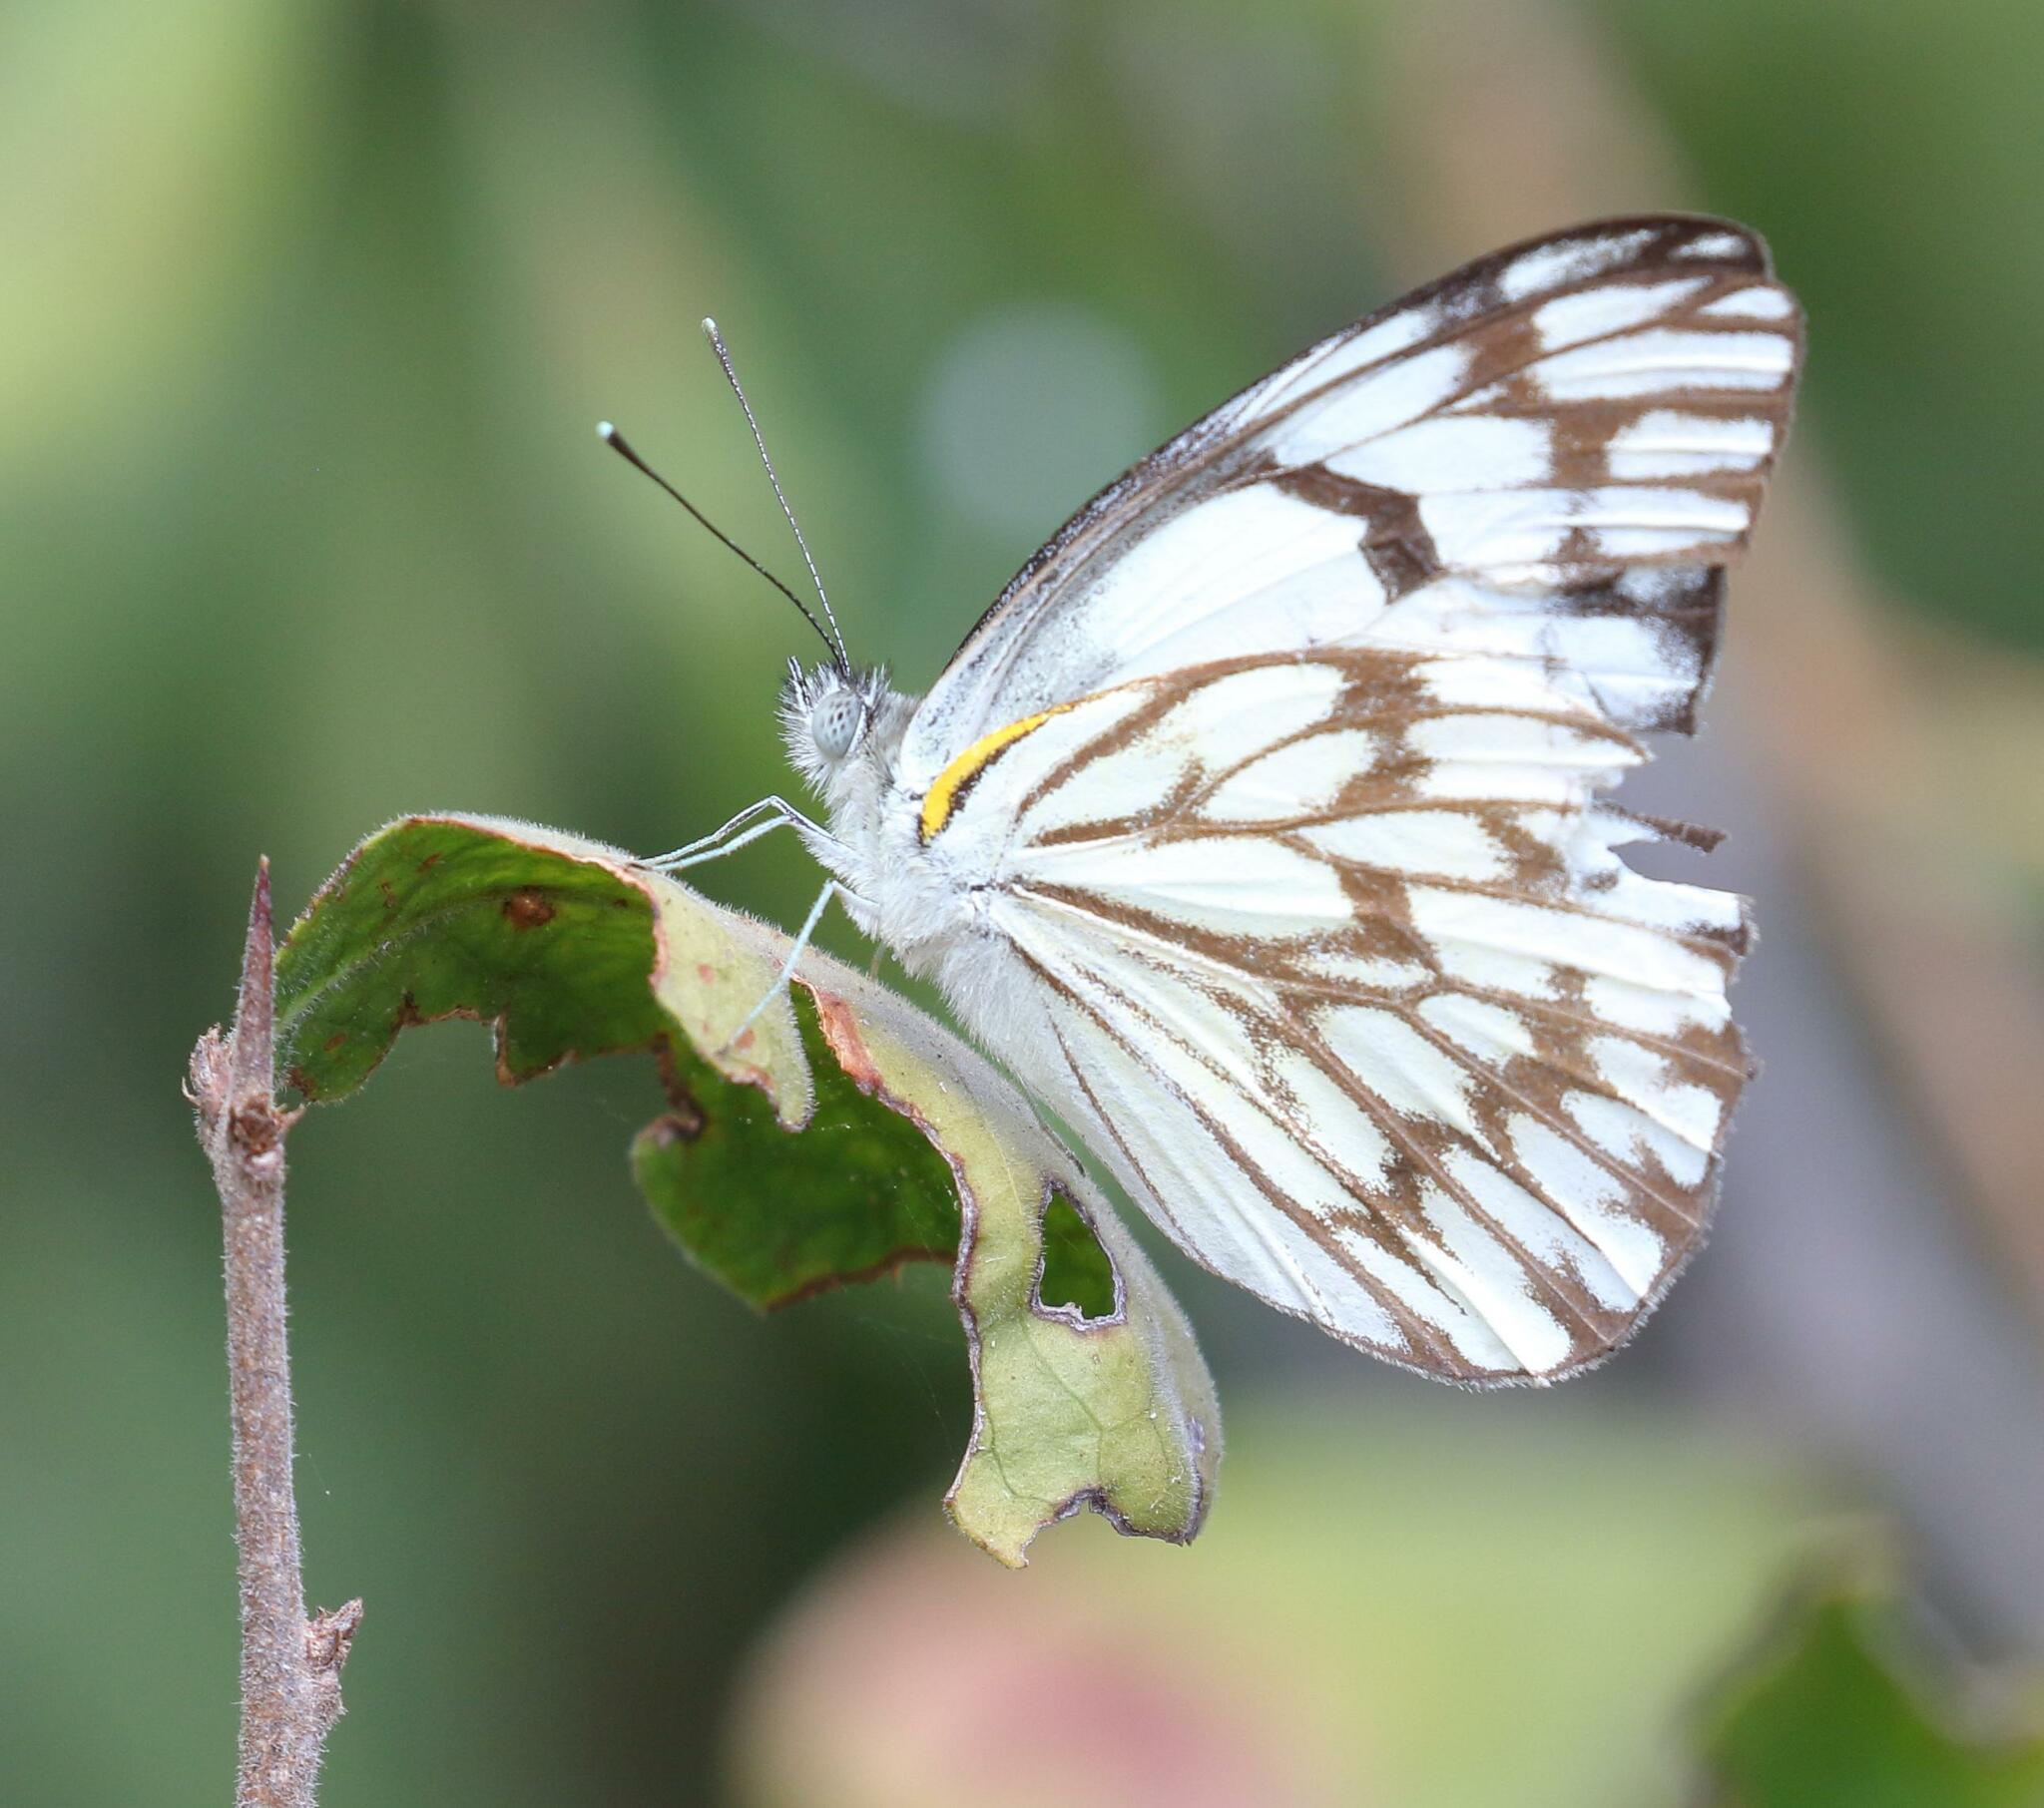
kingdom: Animalia
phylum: Arthropoda
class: Insecta
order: Lepidoptera
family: Pieridae
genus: Belenois
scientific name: Belenois gidica
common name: Pointed caper white
